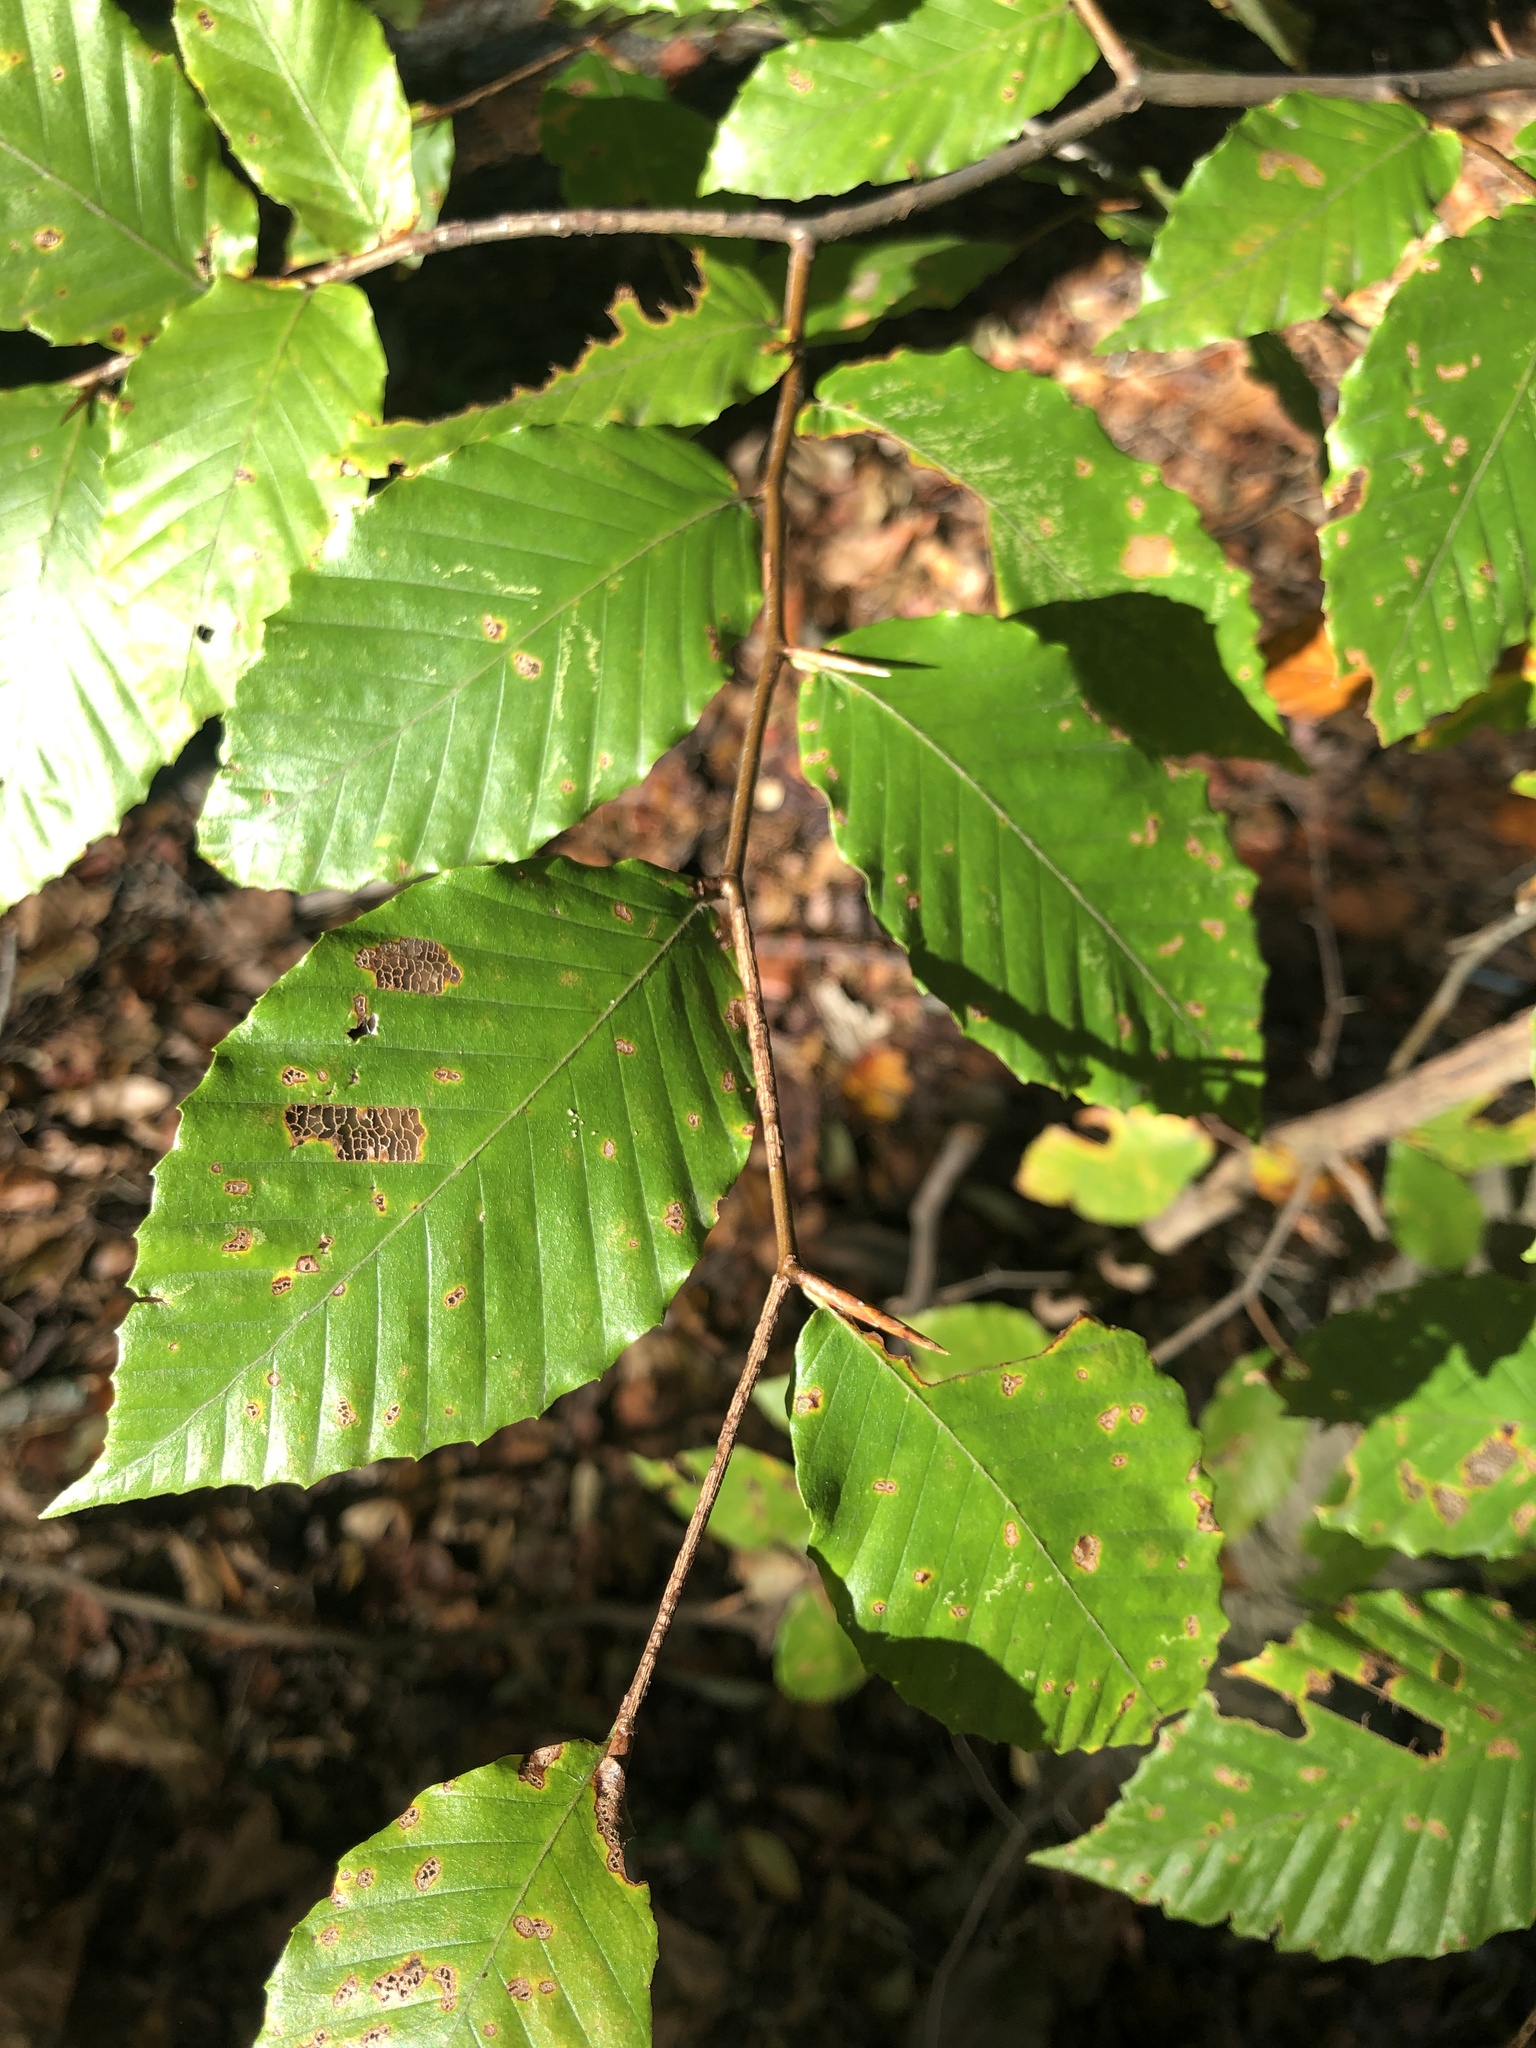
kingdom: Plantae
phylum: Tracheophyta
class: Magnoliopsida
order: Fagales
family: Fagaceae
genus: Fagus
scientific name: Fagus grandifolia
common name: American beech
